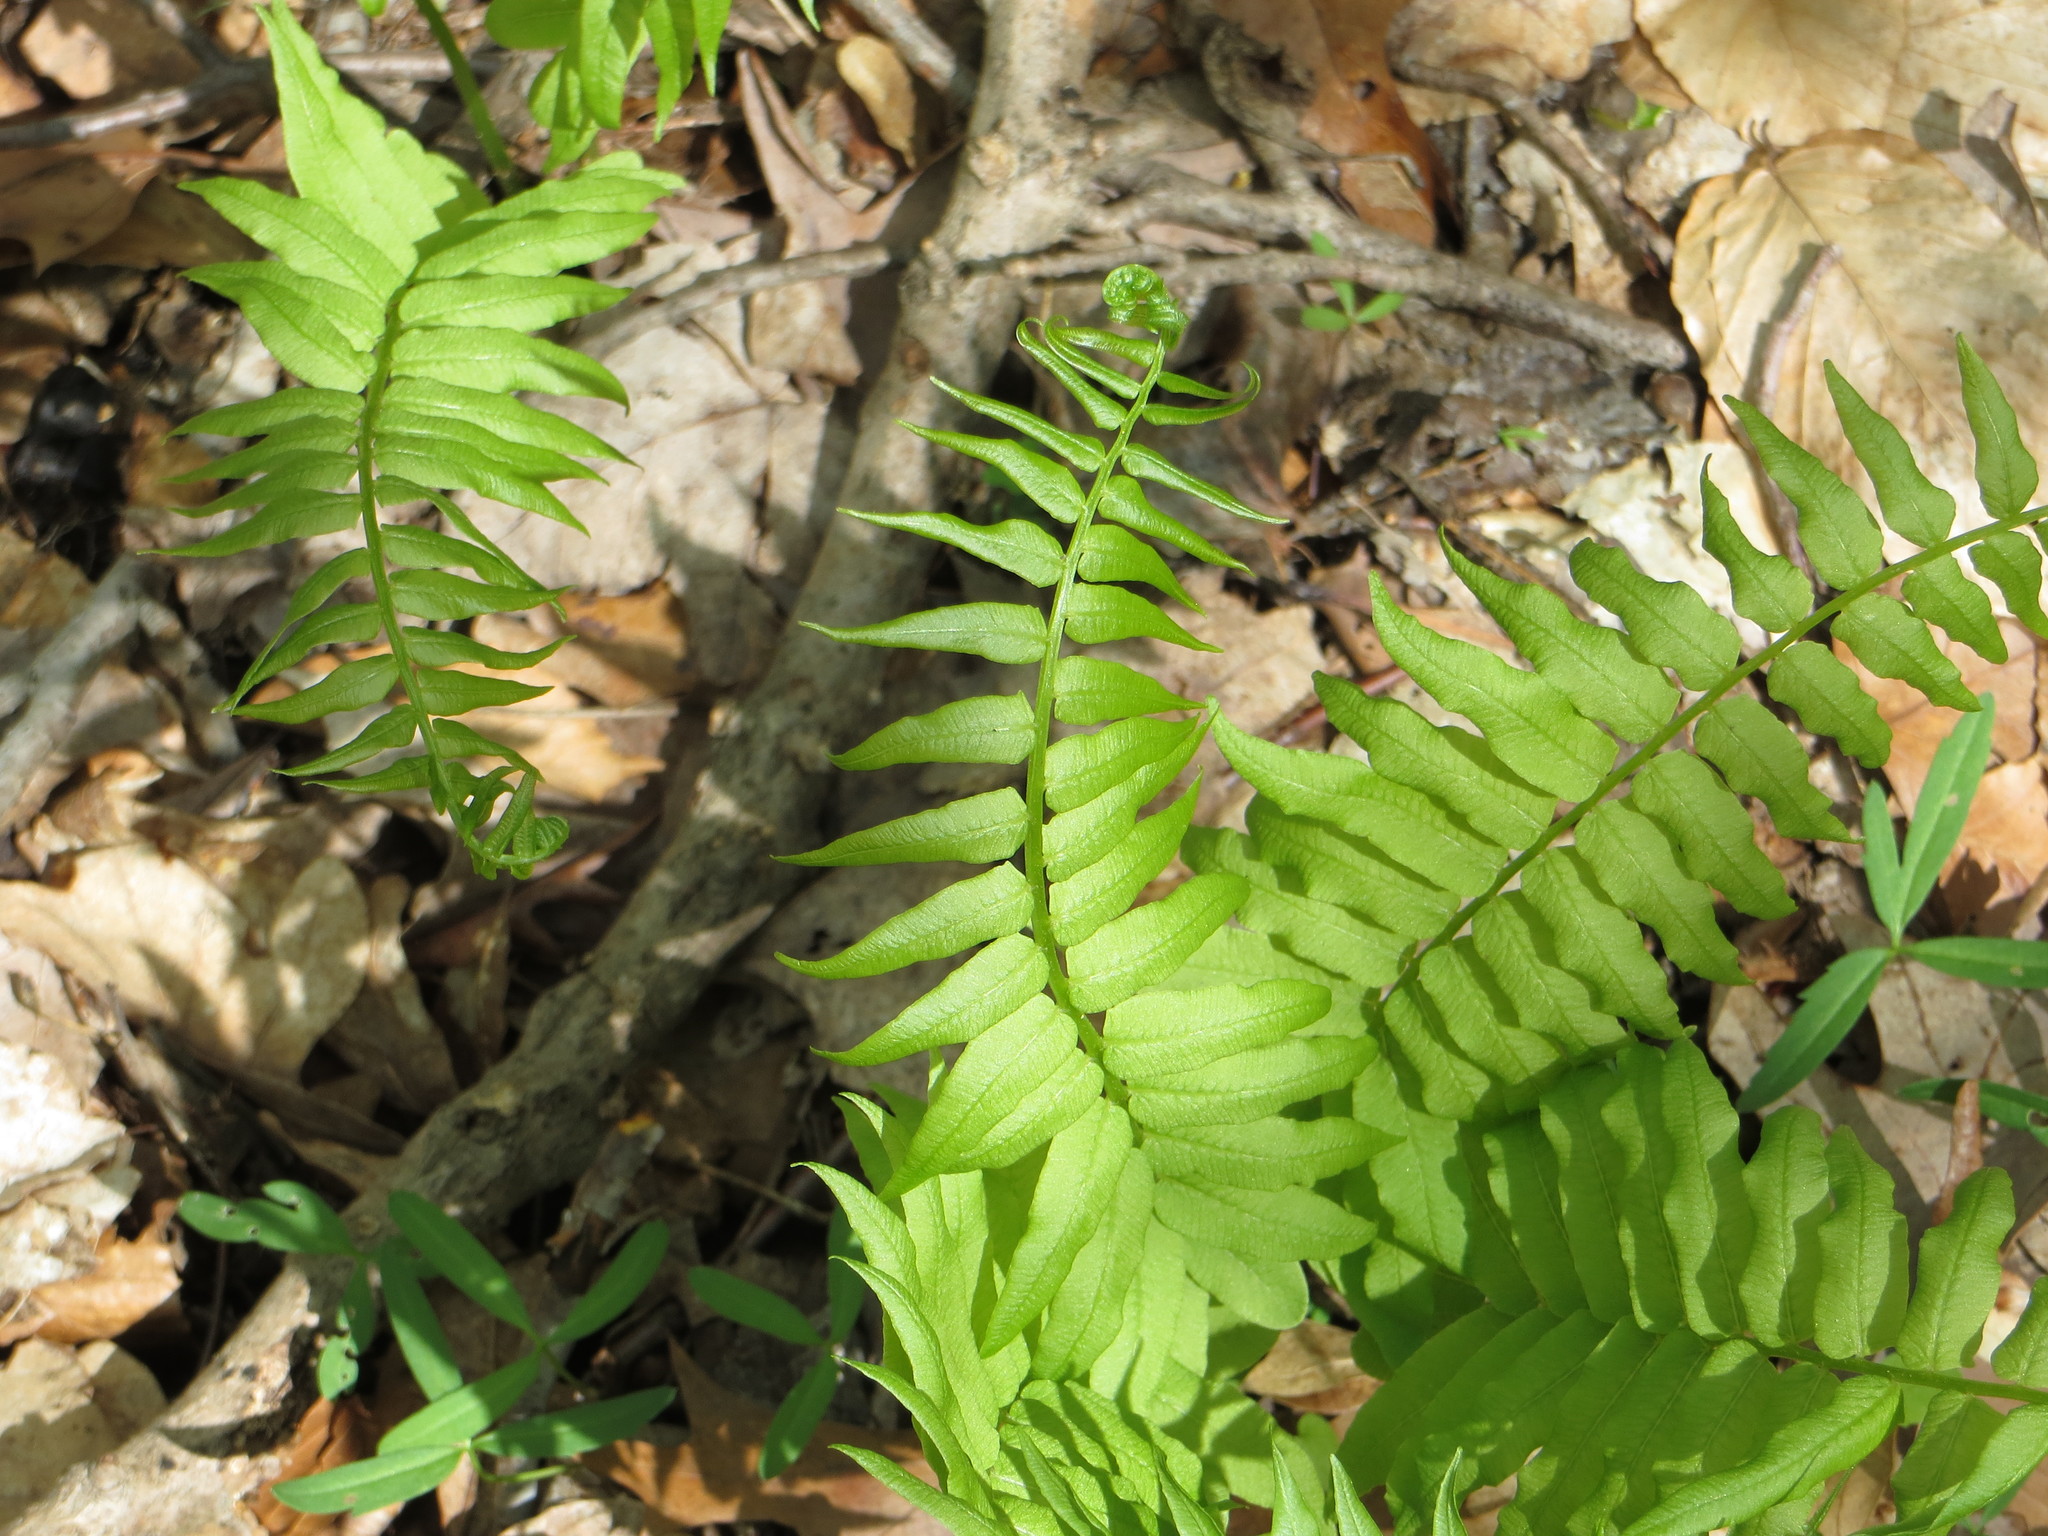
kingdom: Plantae
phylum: Tracheophyta
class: Polypodiopsida
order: Polypodiales
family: Diplaziopsidaceae
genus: Homalosorus
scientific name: Homalosorus pycnocarpos
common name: Glade fern
